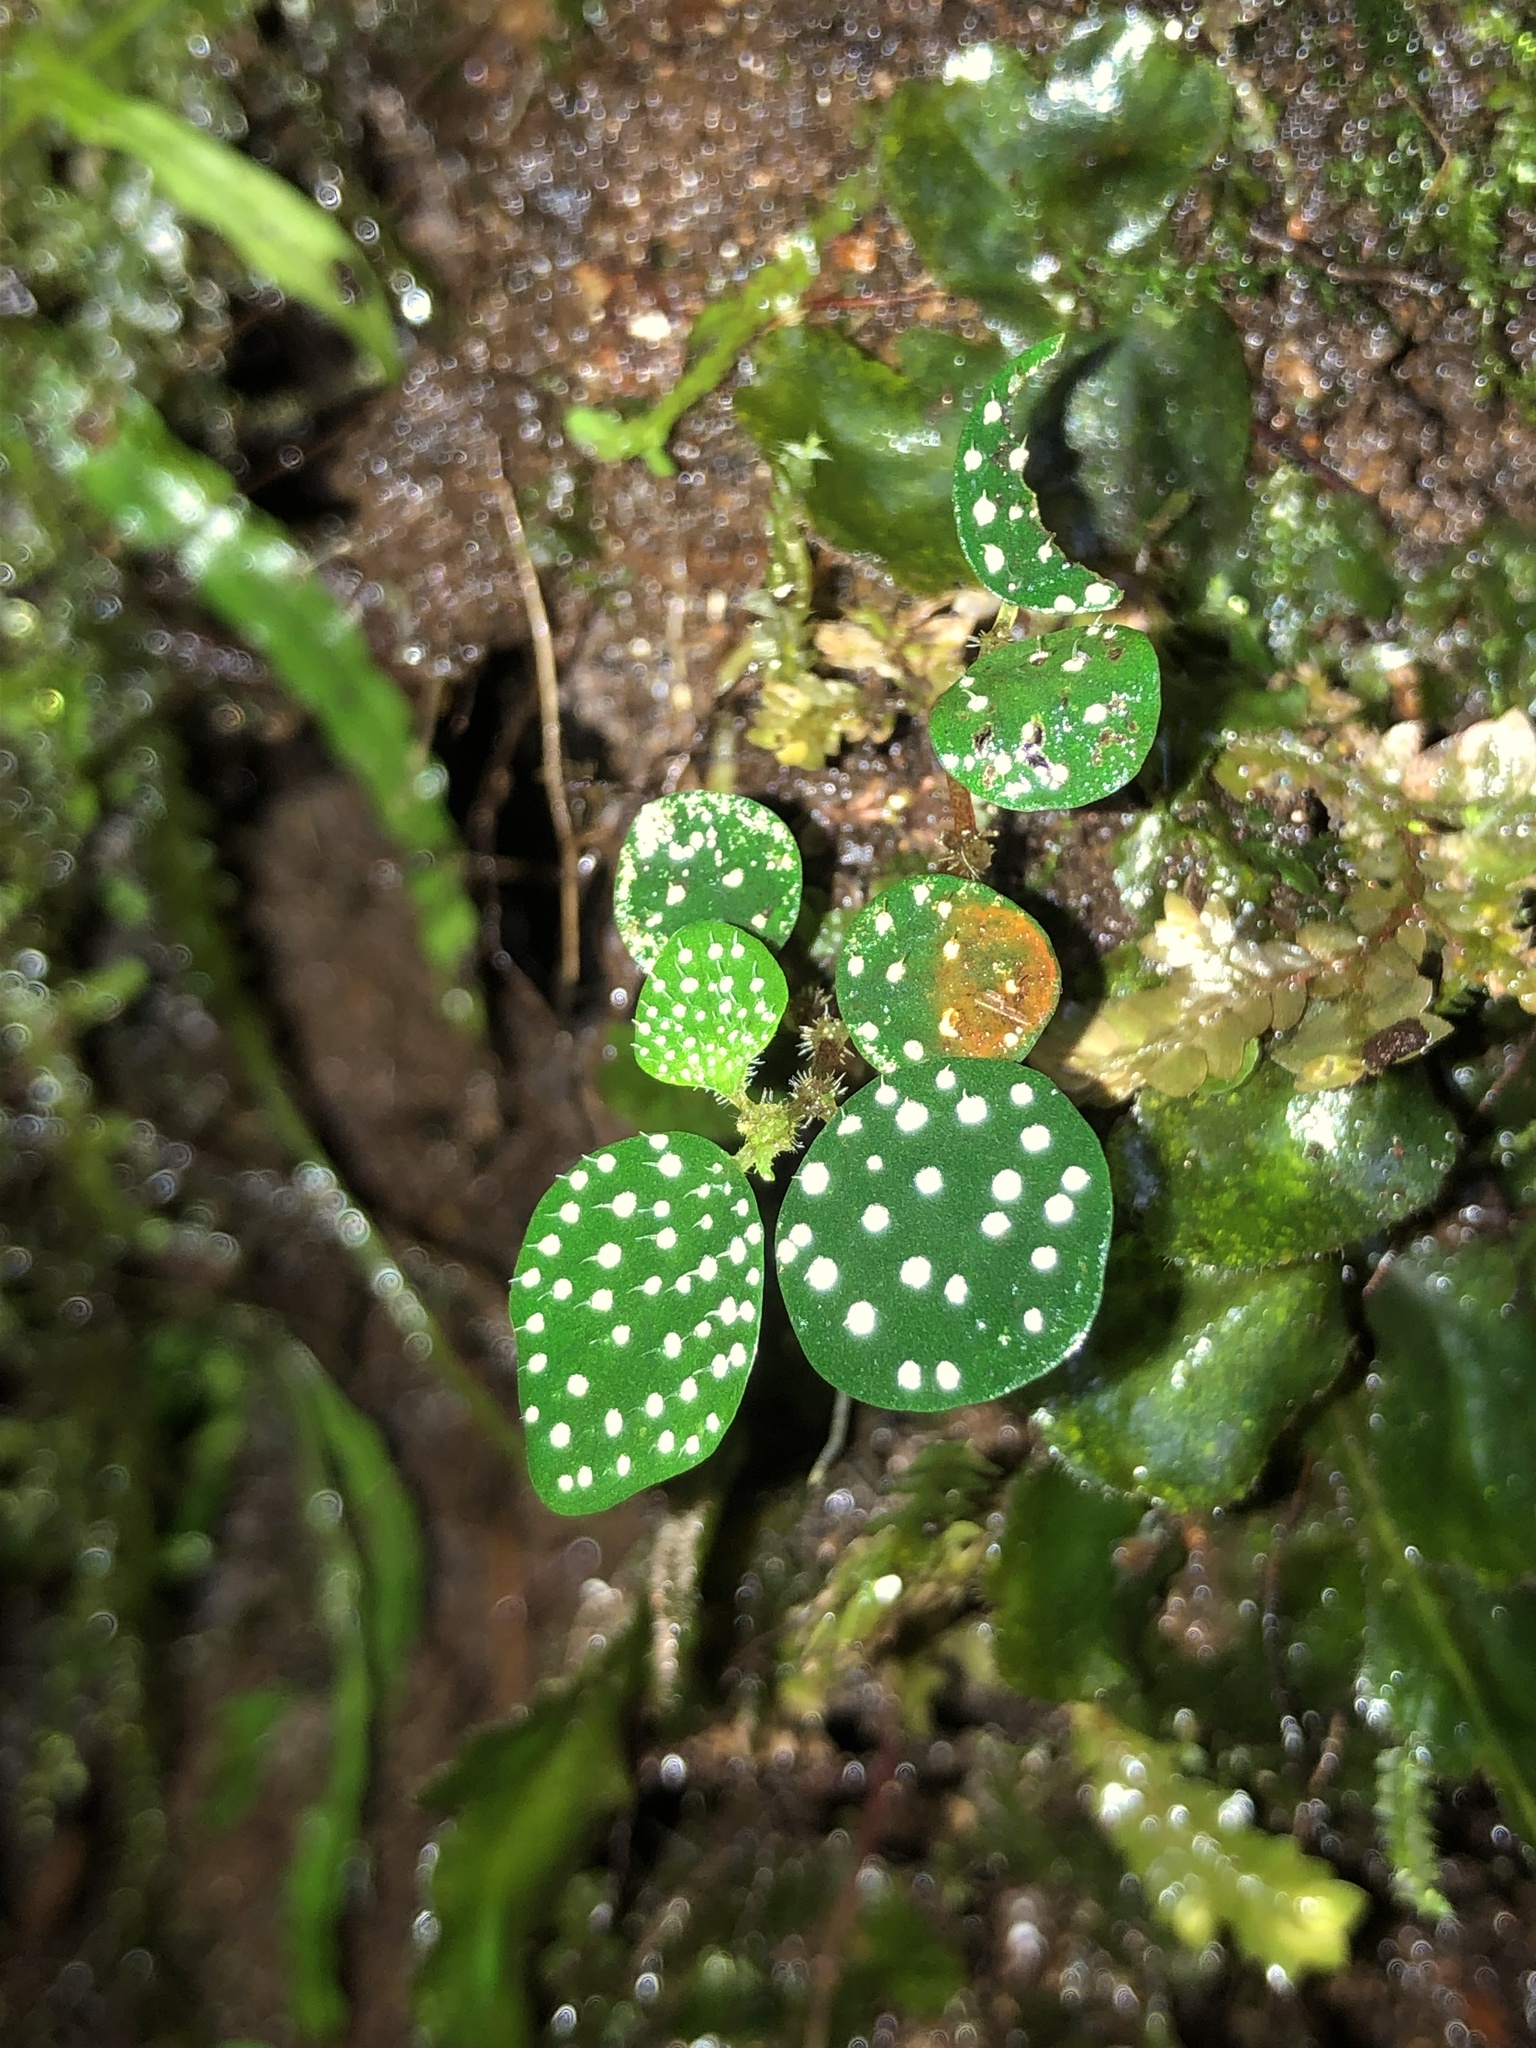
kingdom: Plantae
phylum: Tracheophyta
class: Magnoliopsida
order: Piperales
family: Piperaceae
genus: Peperomia
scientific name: Peperomia hispidula
